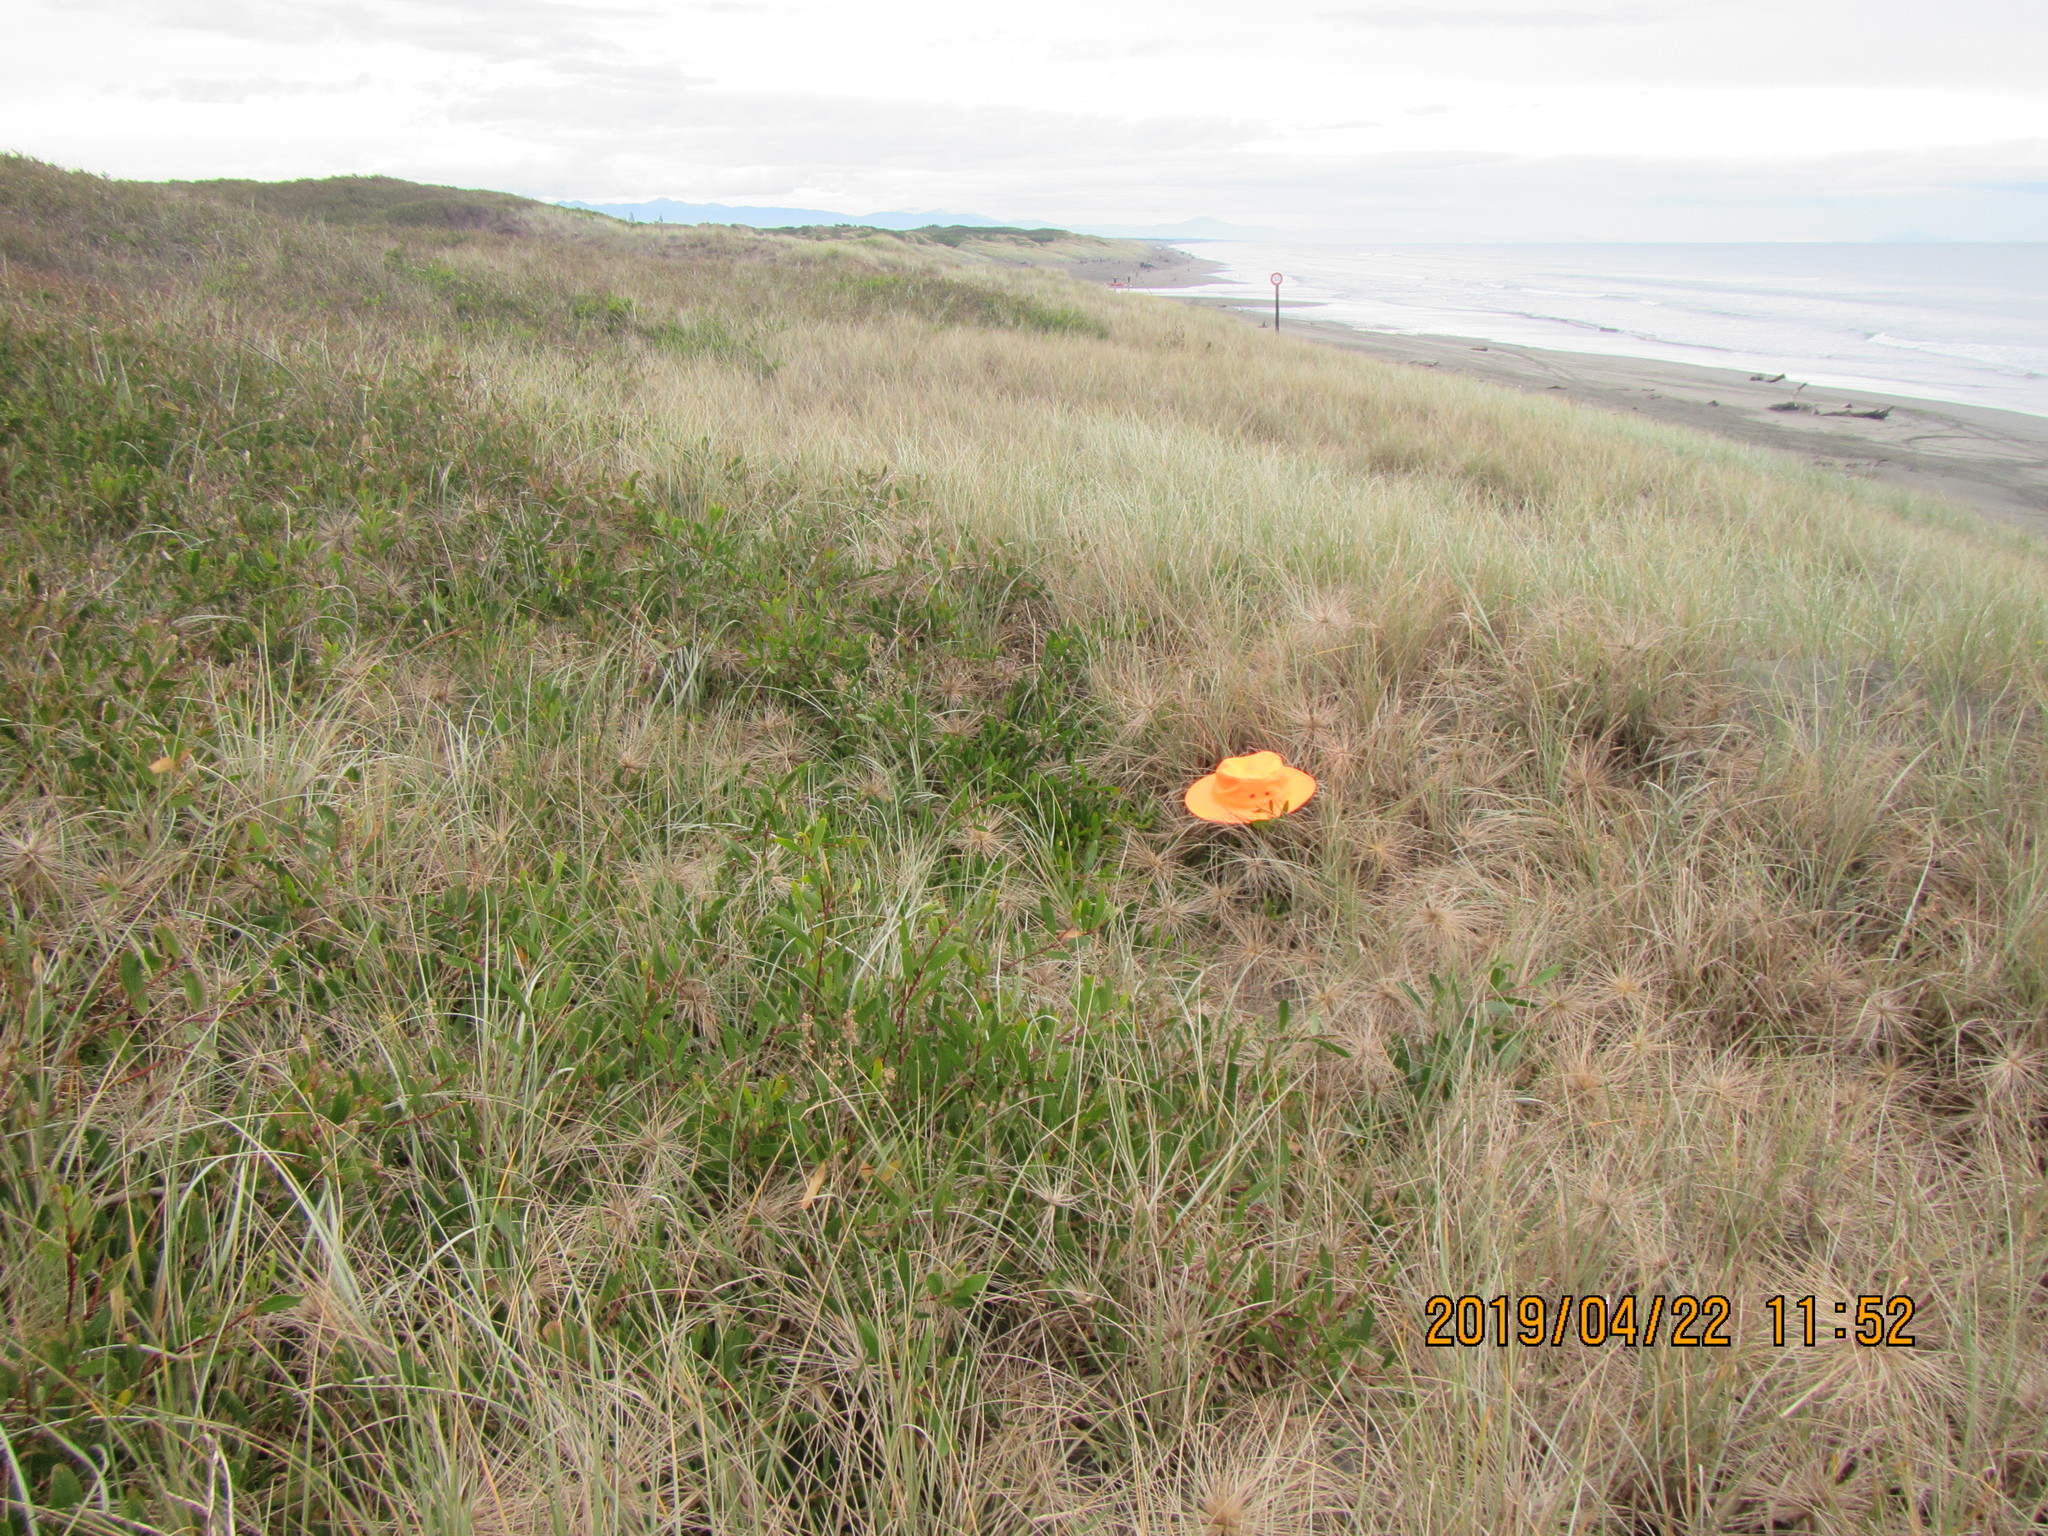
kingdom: Animalia
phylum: Arthropoda
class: Arachnida
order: Araneae
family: Theridiidae
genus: Latrodectus
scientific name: Latrodectus katipo
